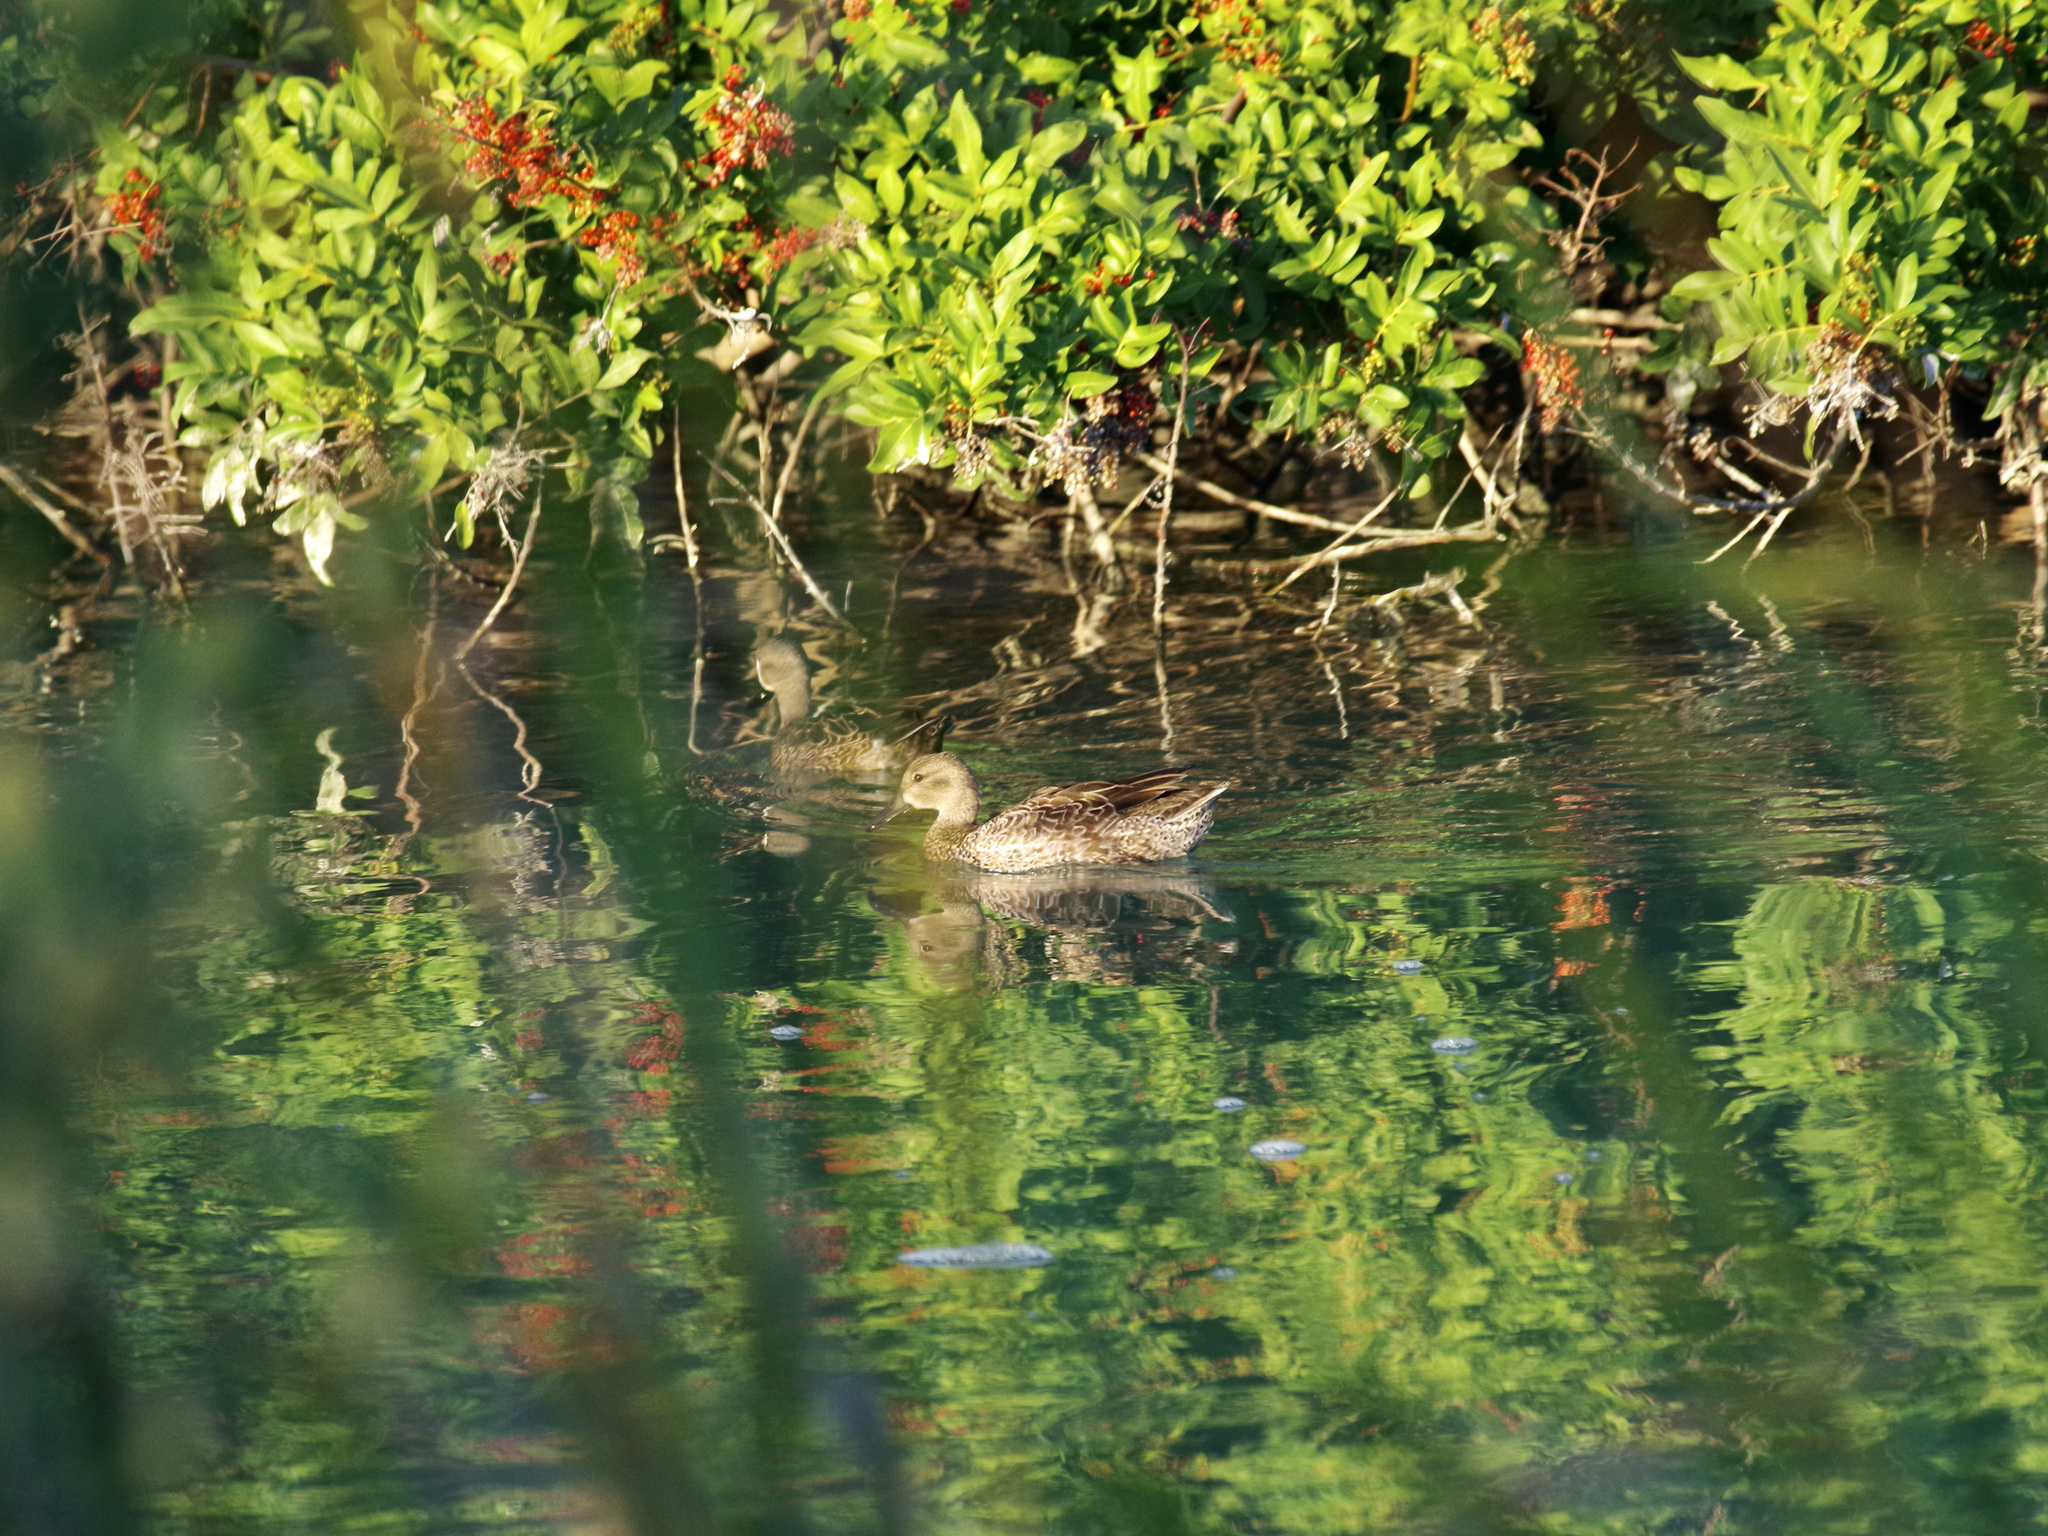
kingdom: Animalia
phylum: Chordata
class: Aves
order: Anseriformes
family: Anatidae
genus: Spatula
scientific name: Spatula discors
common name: Blue-winged teal
